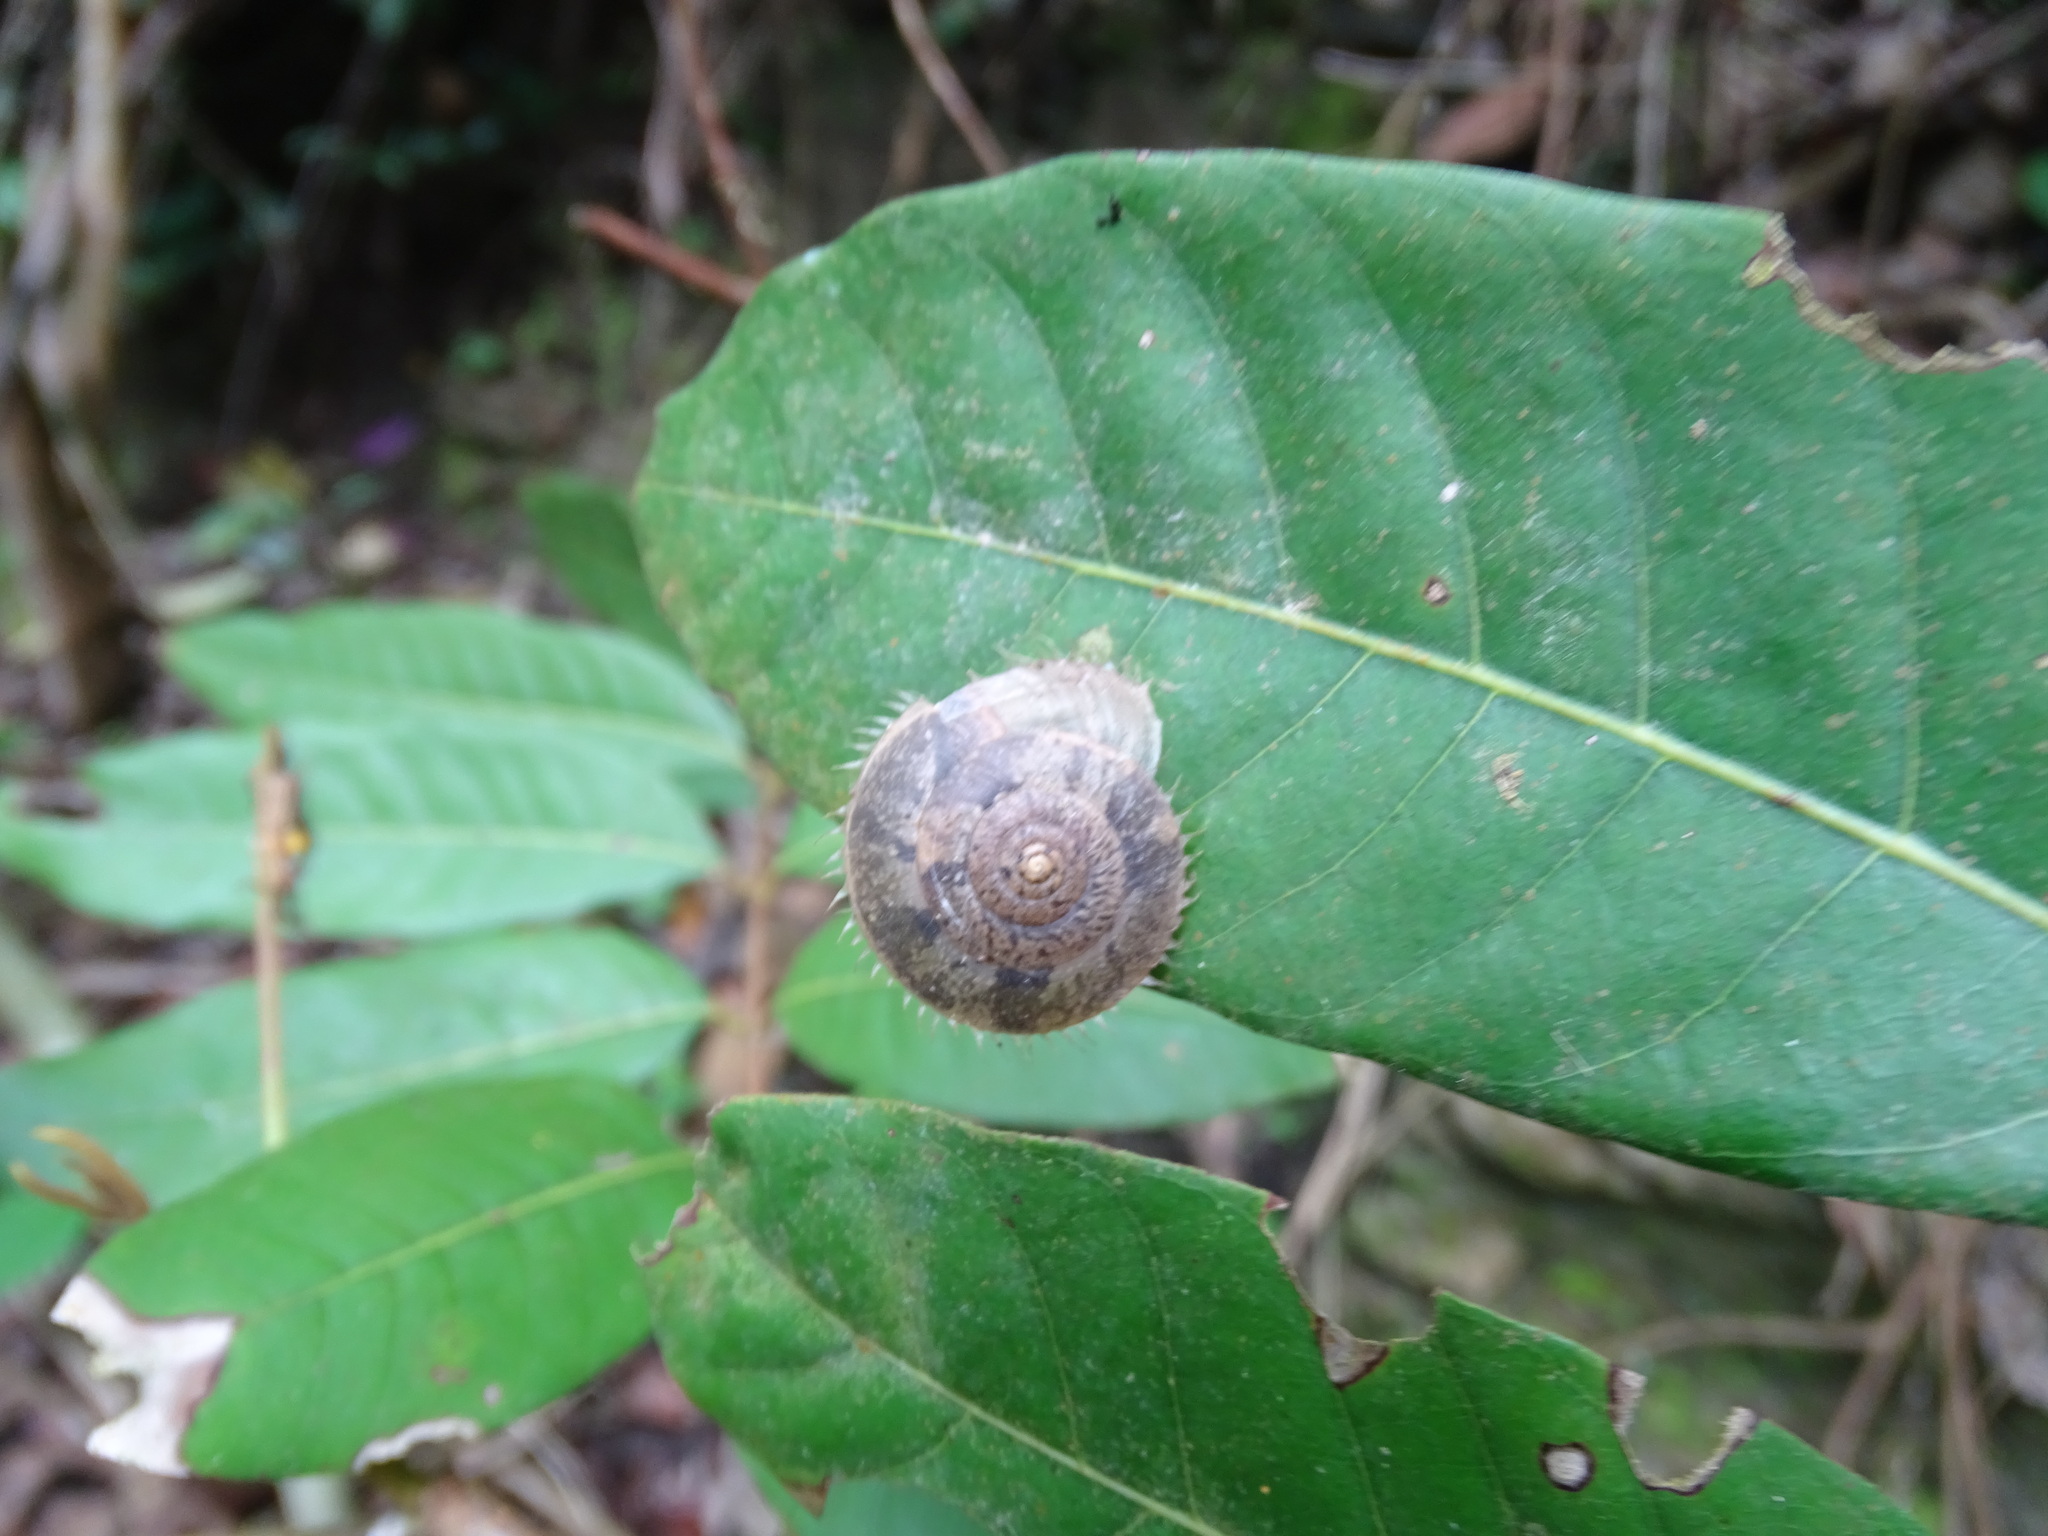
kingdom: Animalia
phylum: Mollusca
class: Gastropoda
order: Stylommatophora
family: Camaenidae
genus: Aegista
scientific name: Aegista impexa
